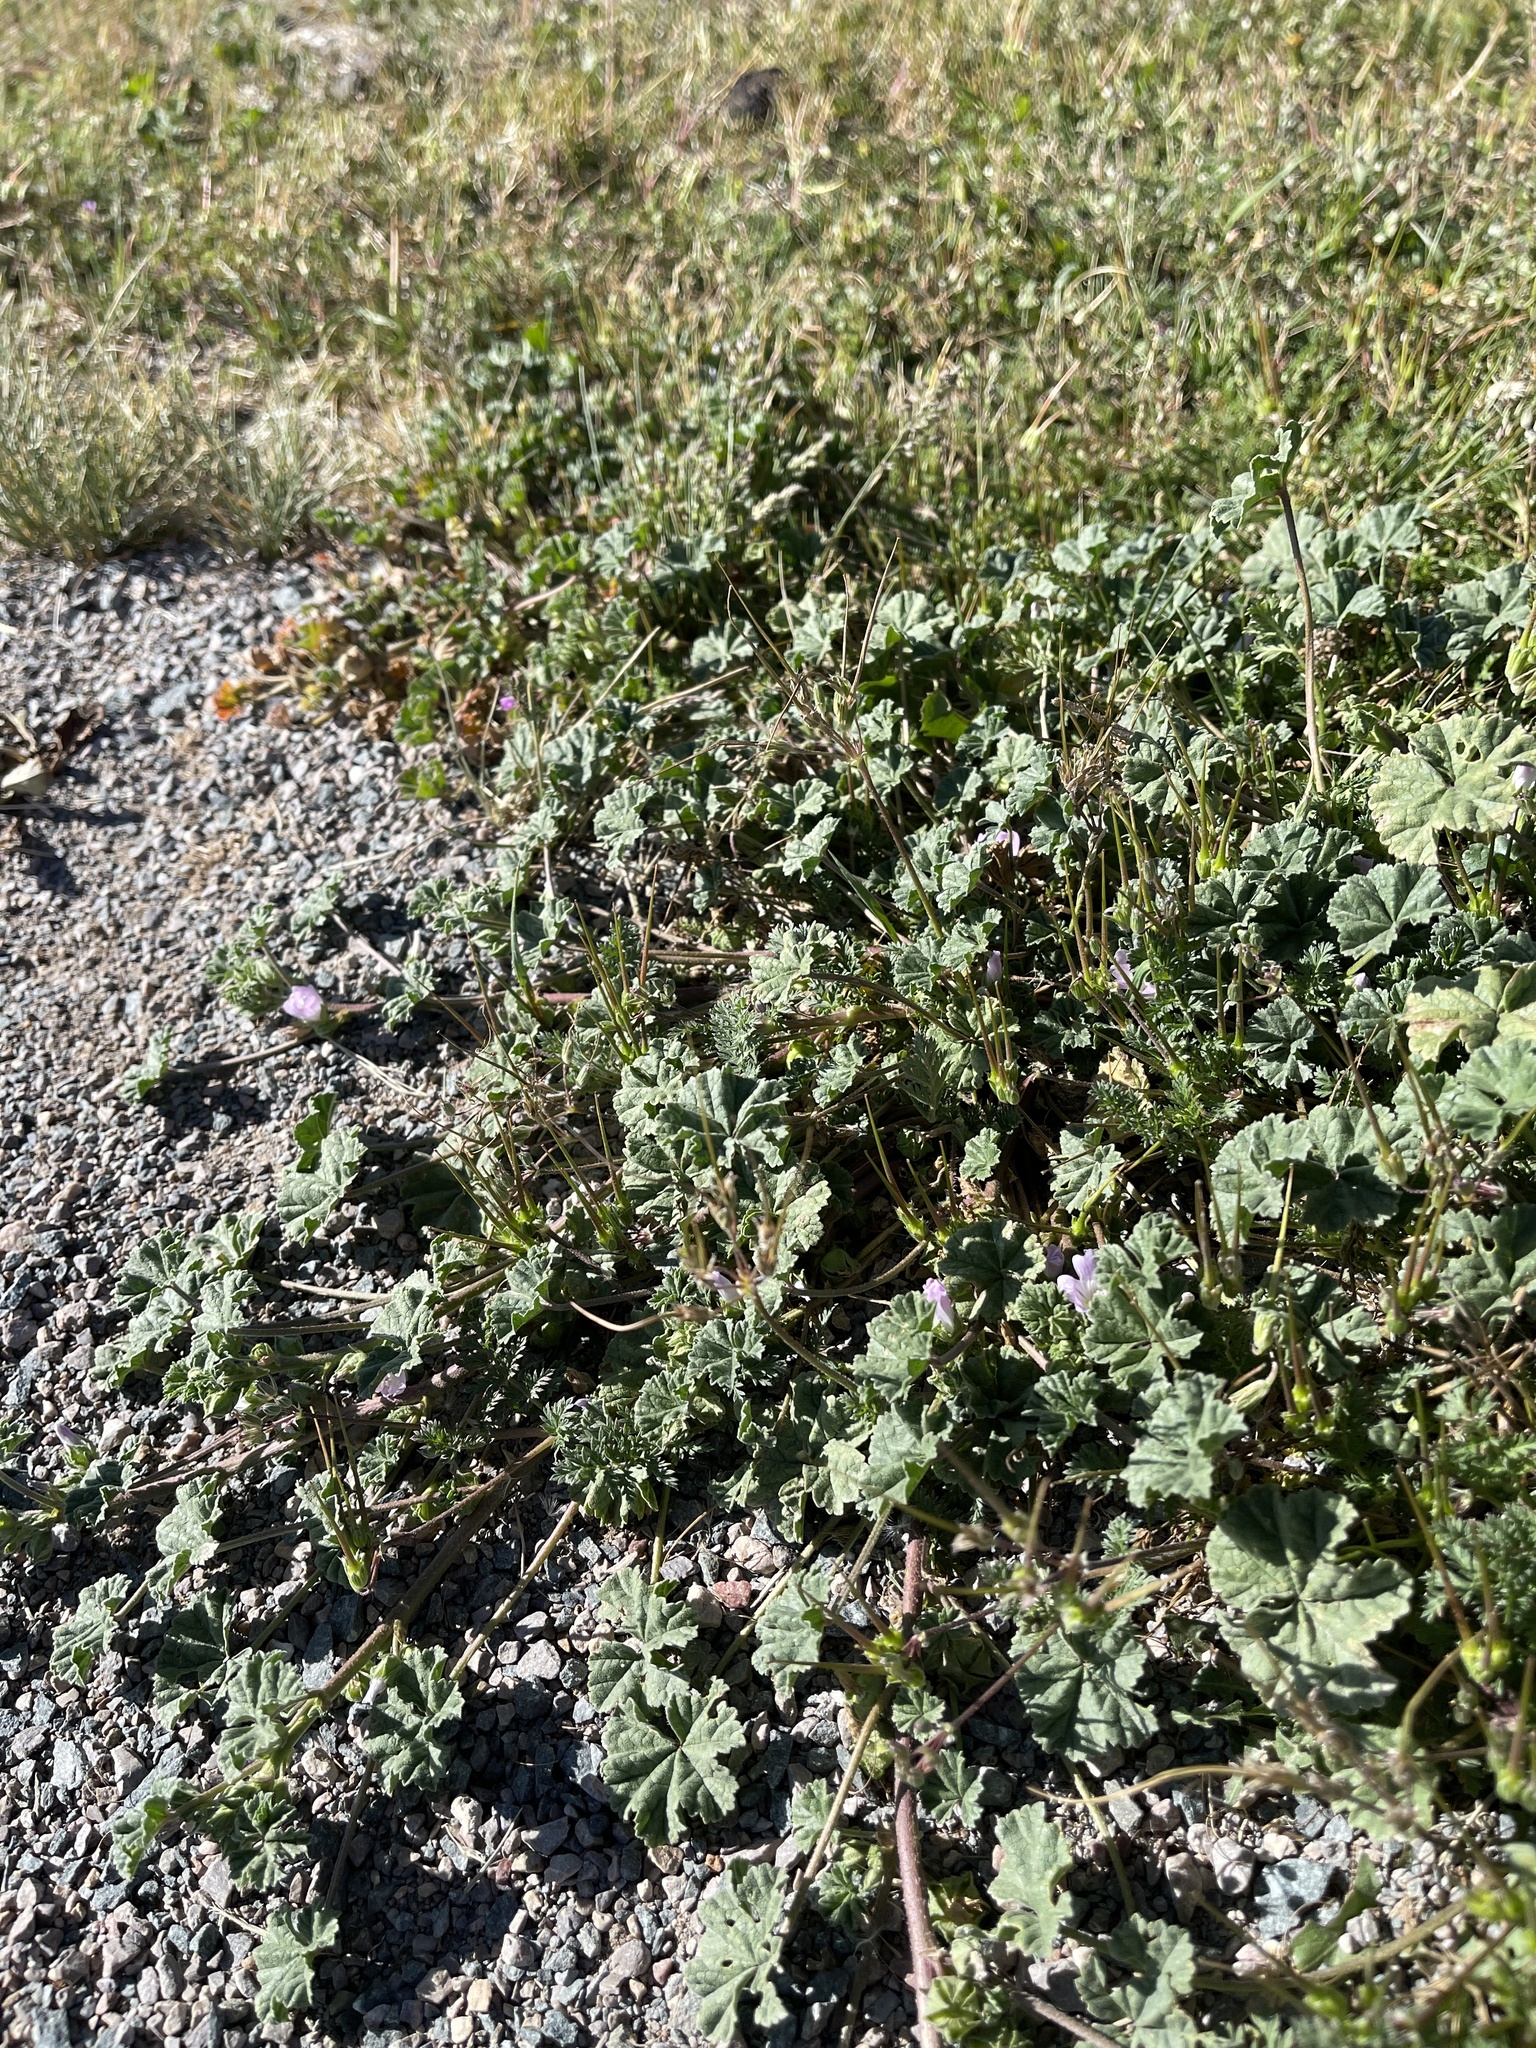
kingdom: Plantae
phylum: Tracheophyta
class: Magnoliopsida
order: Malvales
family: Malvaceae
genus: Malva
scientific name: Malva parviflora
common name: Least mallow
